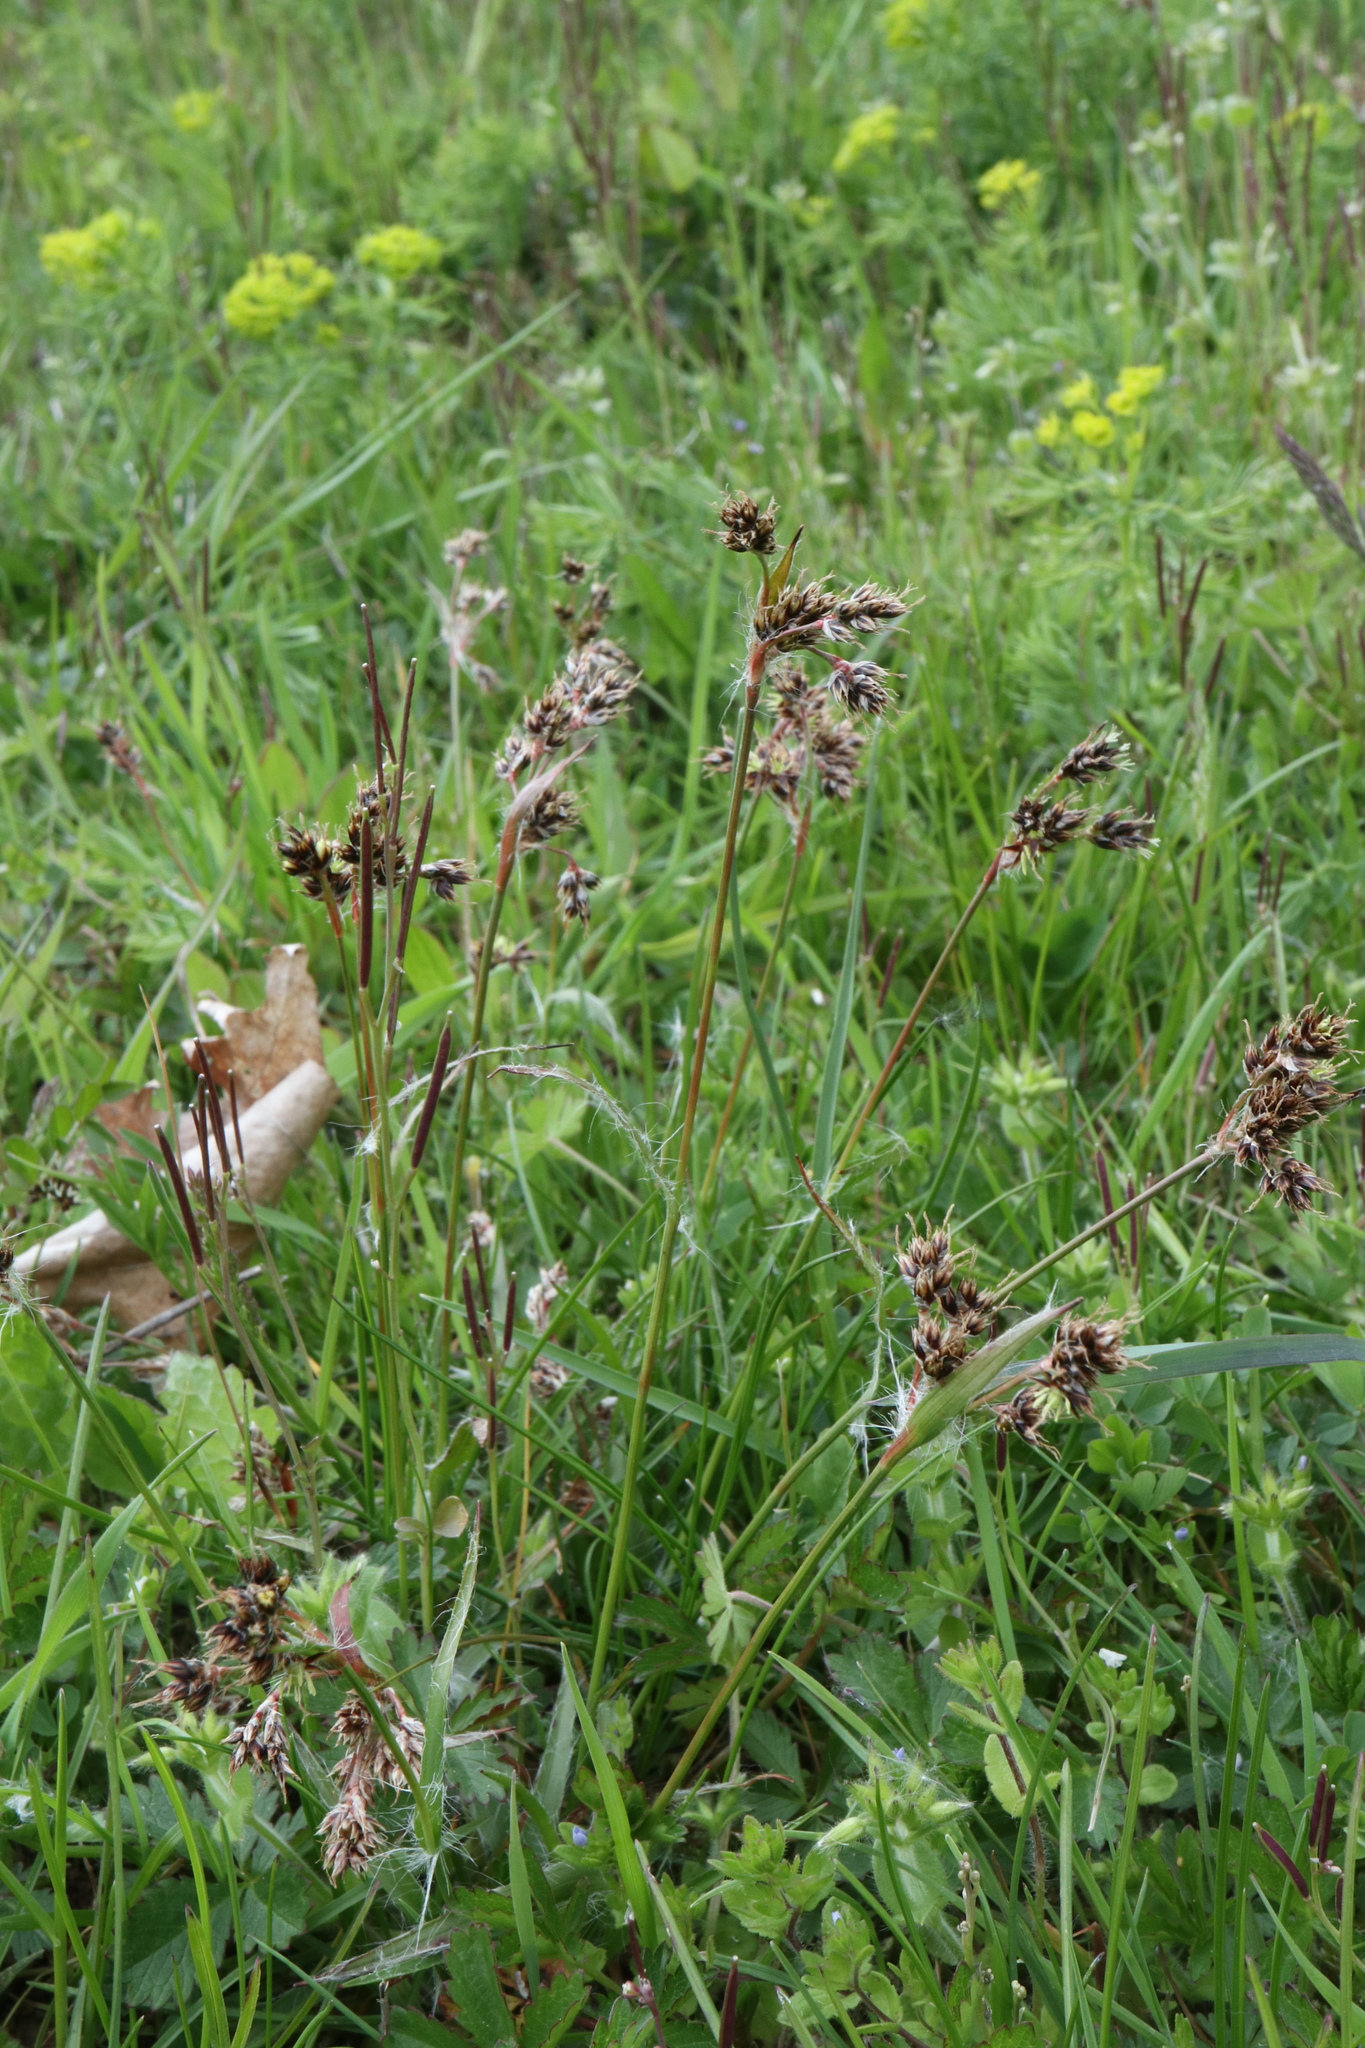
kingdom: Plantae
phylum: Tracheophyta
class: Liliopsida
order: Poales
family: Juncaceae
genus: Luzula
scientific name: Luzula campestris
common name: Field wood-rush
